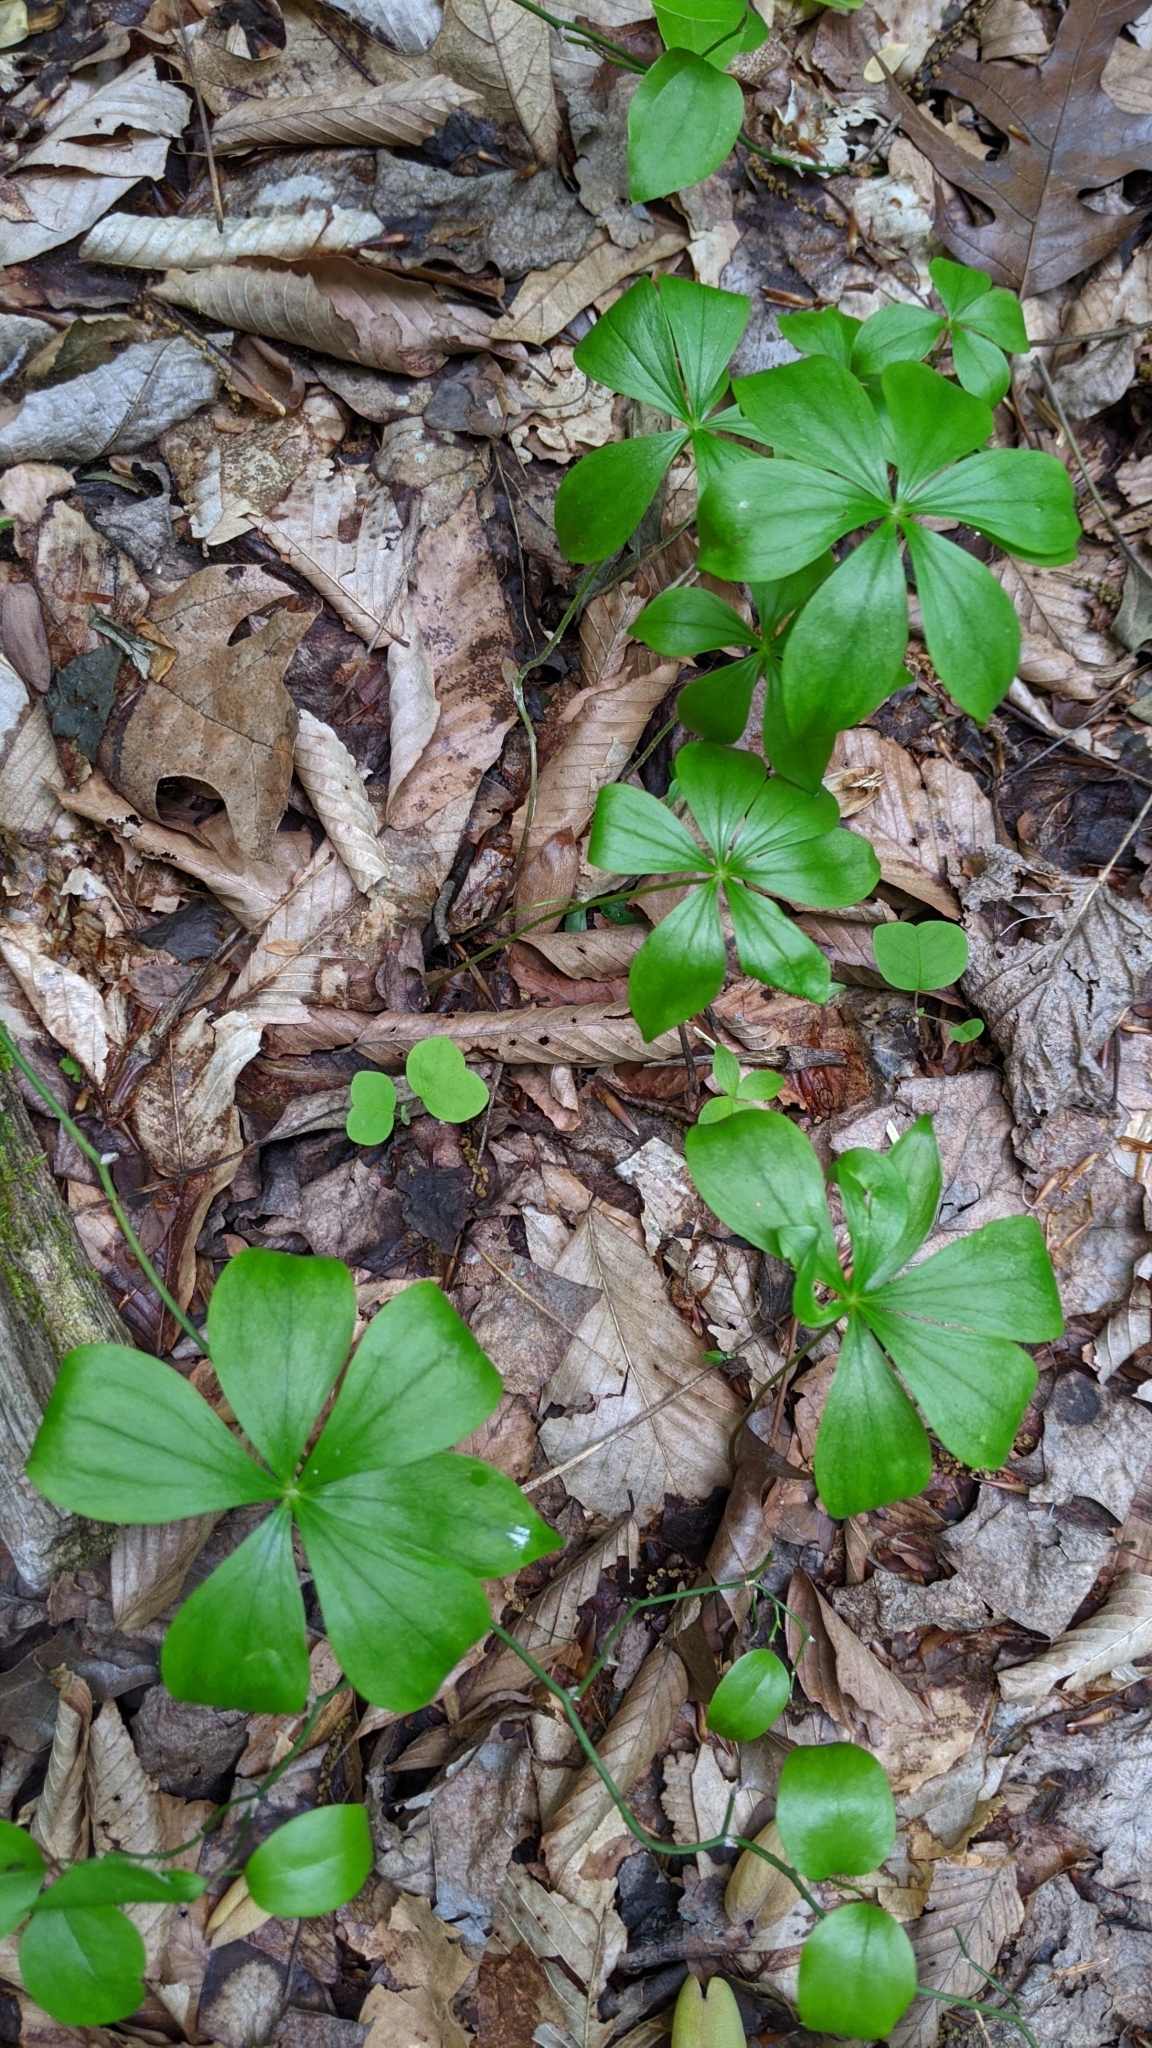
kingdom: Plantae
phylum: Tracheophyta
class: Liliopsida
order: Liliales
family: Liliaceae
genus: Medeola
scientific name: Medeola virginiana
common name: Indian cucumber-root
